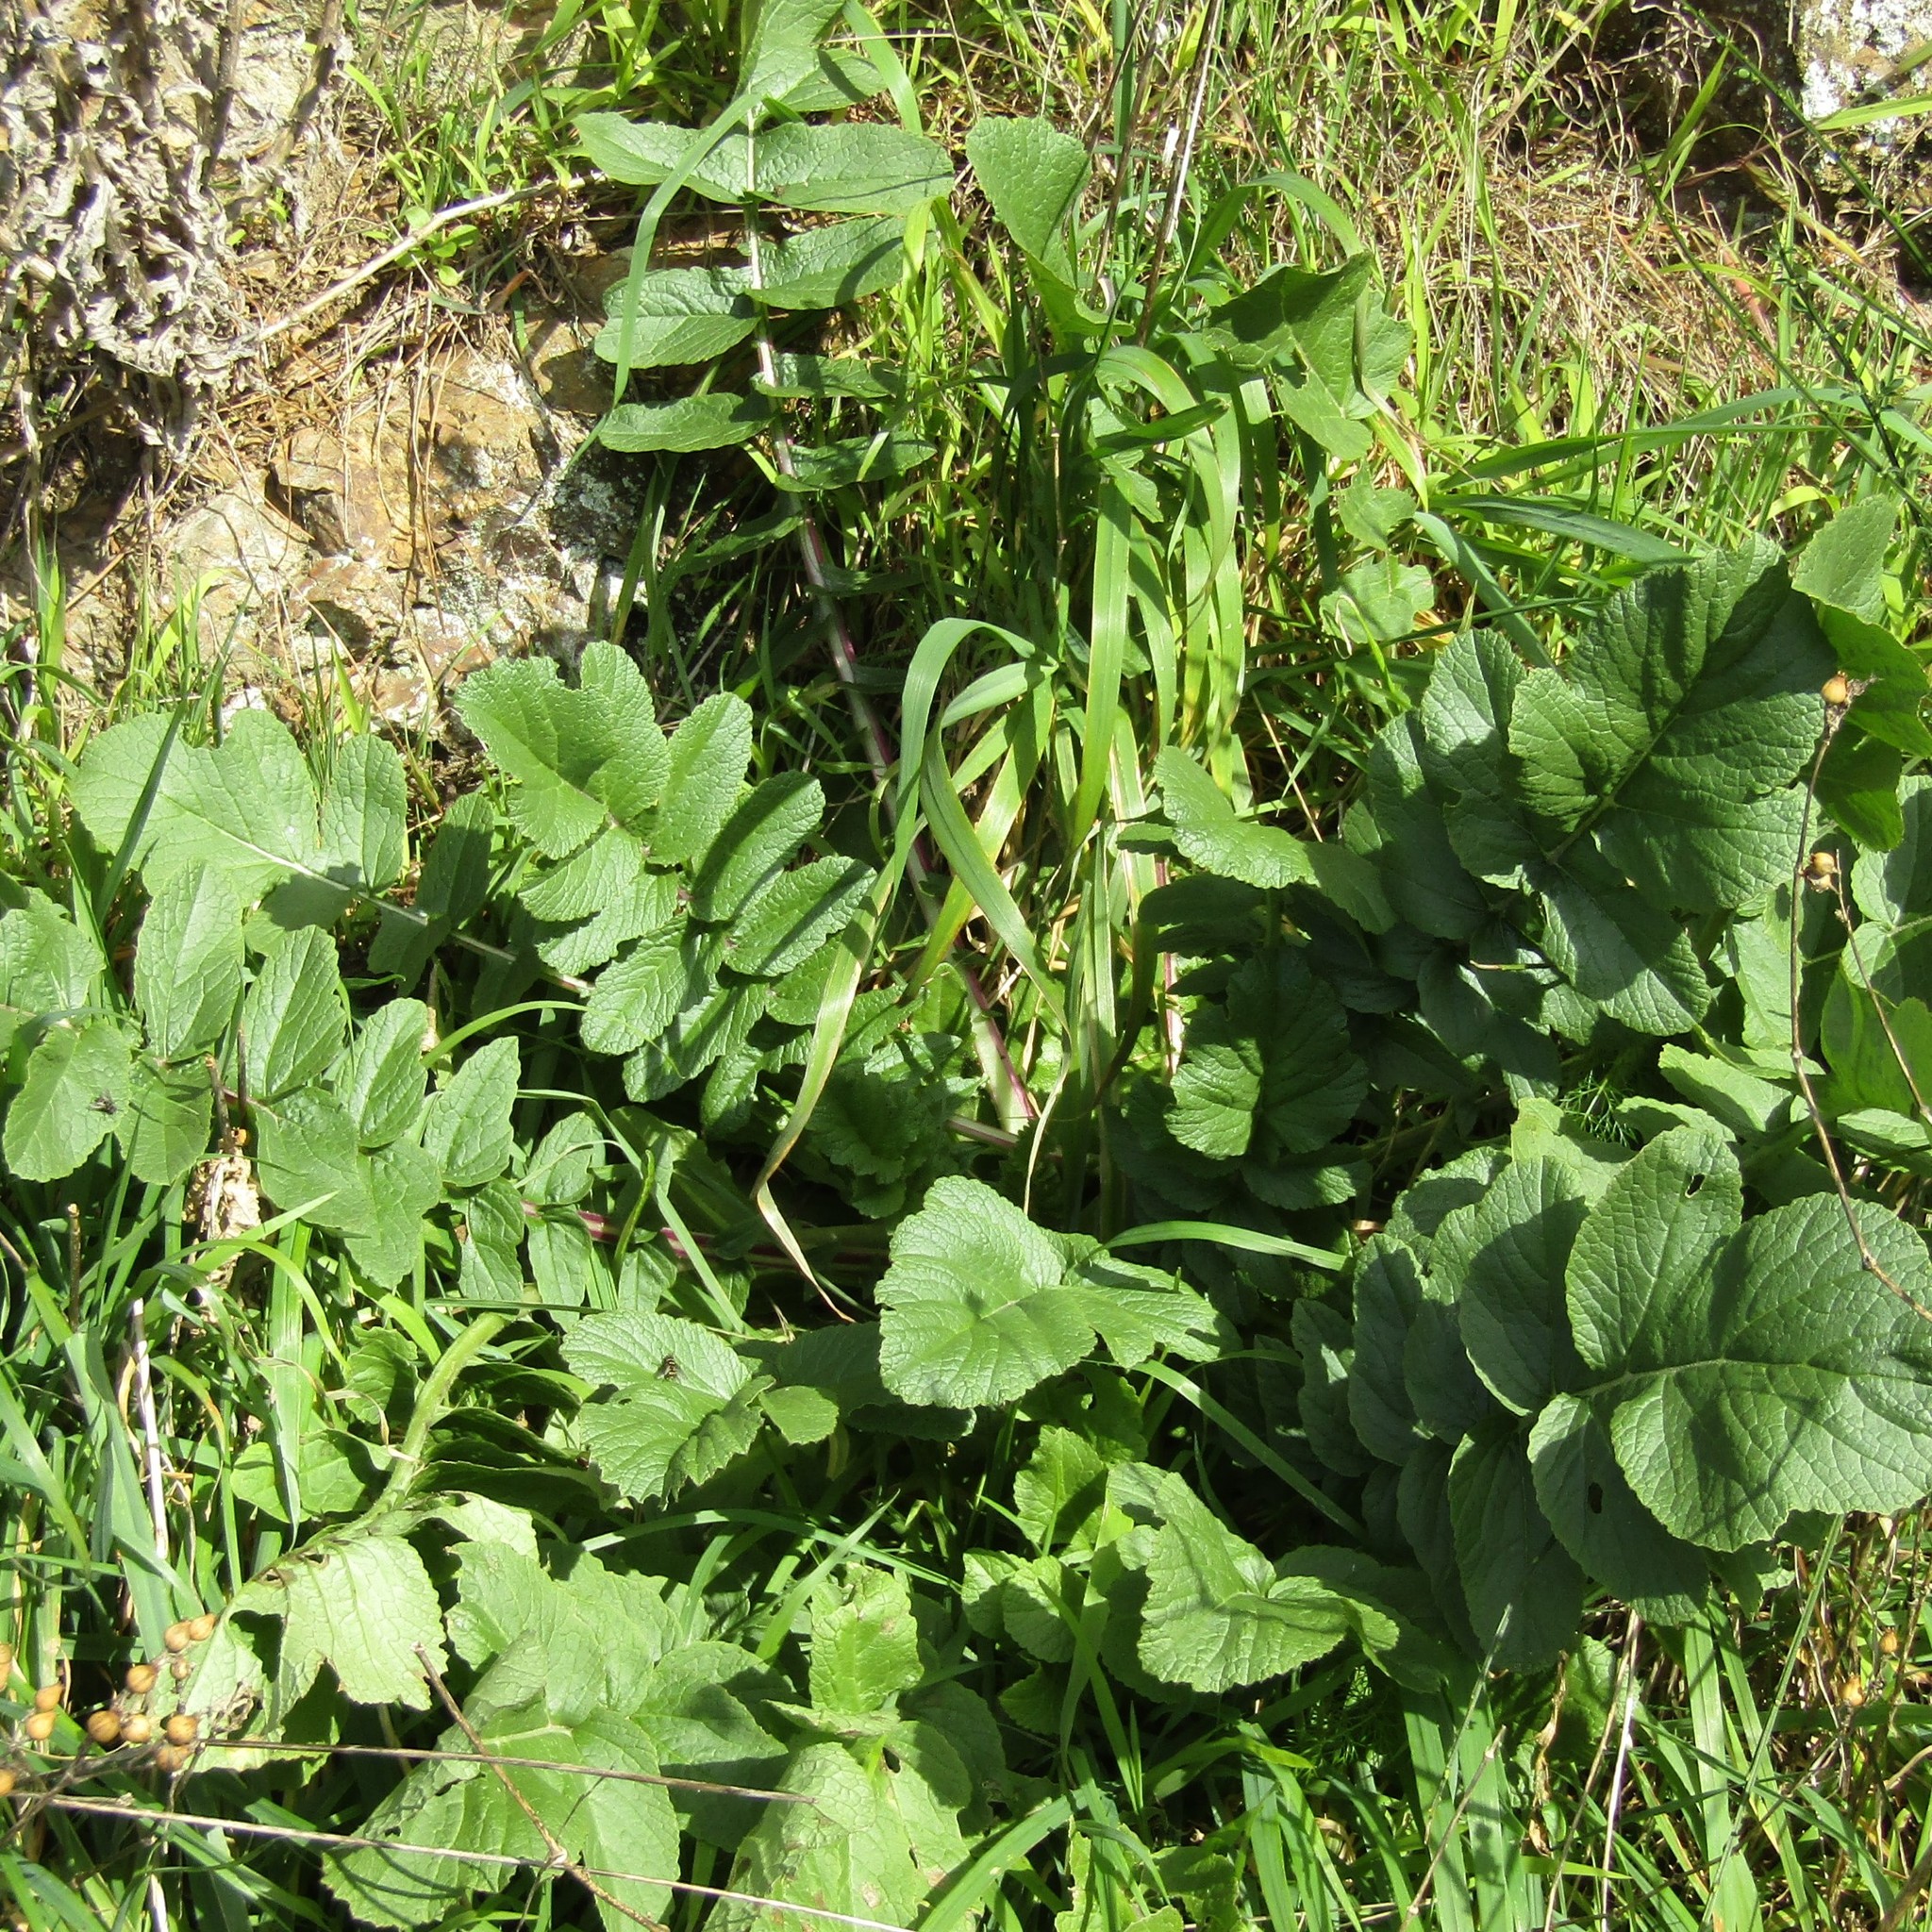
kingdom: Plantae
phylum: Tracheophyta
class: Magnoliopsida
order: Brassicales
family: Brassicaceae
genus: Raphanus
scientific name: Raphanus raphanistrum
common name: Wild radish
